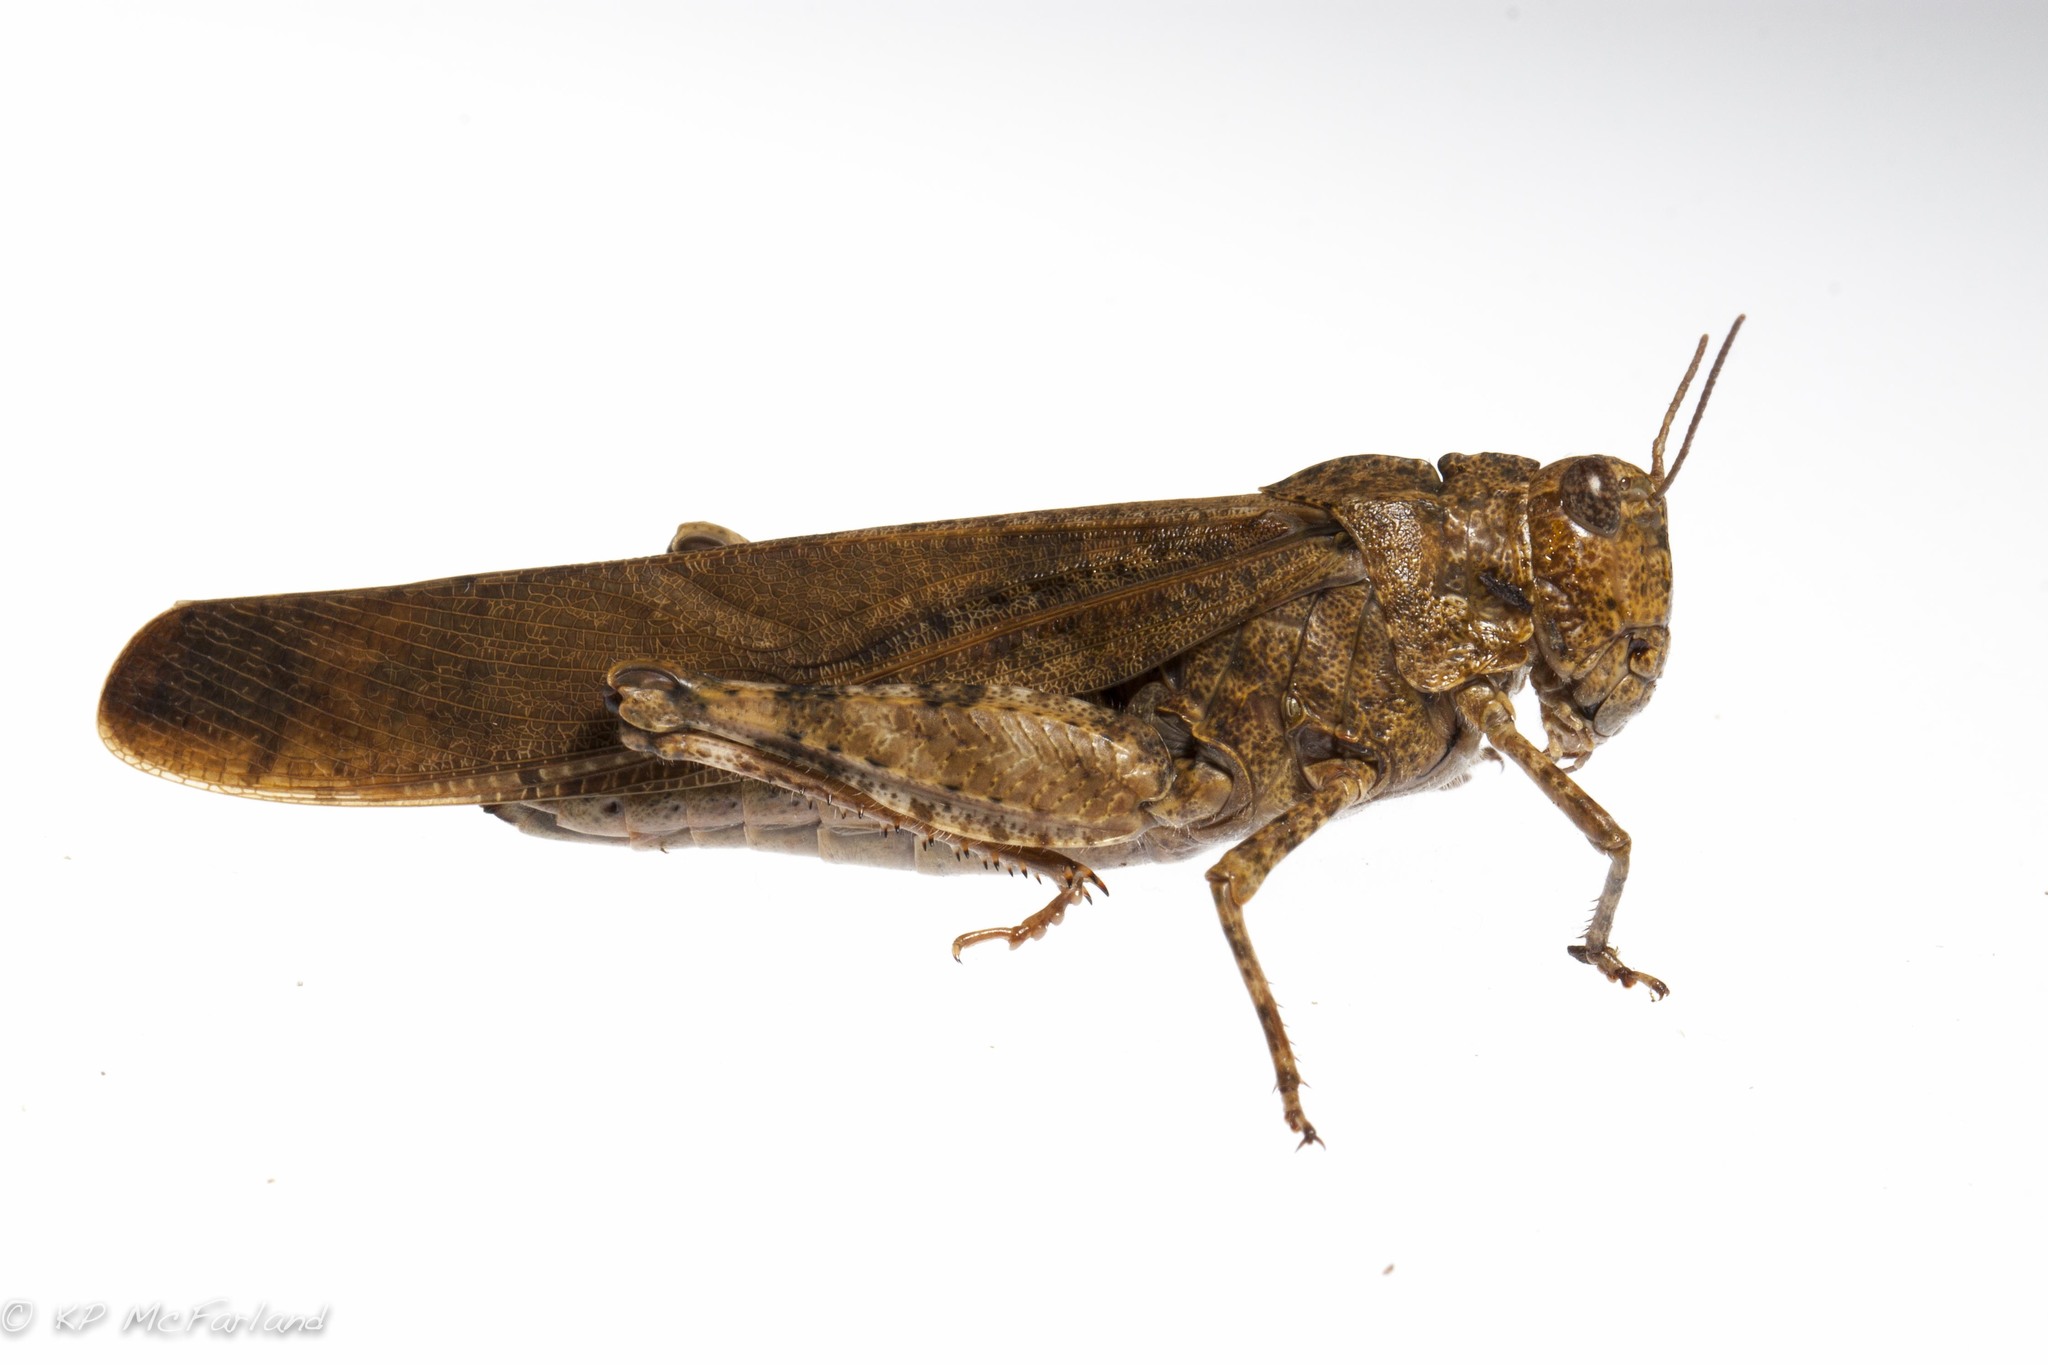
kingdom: Animalia
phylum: Arthropoda
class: Insecta
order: Orthoptera
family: Acrididae
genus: Dissosteira
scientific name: Dissosteira carolina
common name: Carolina grasshopper
